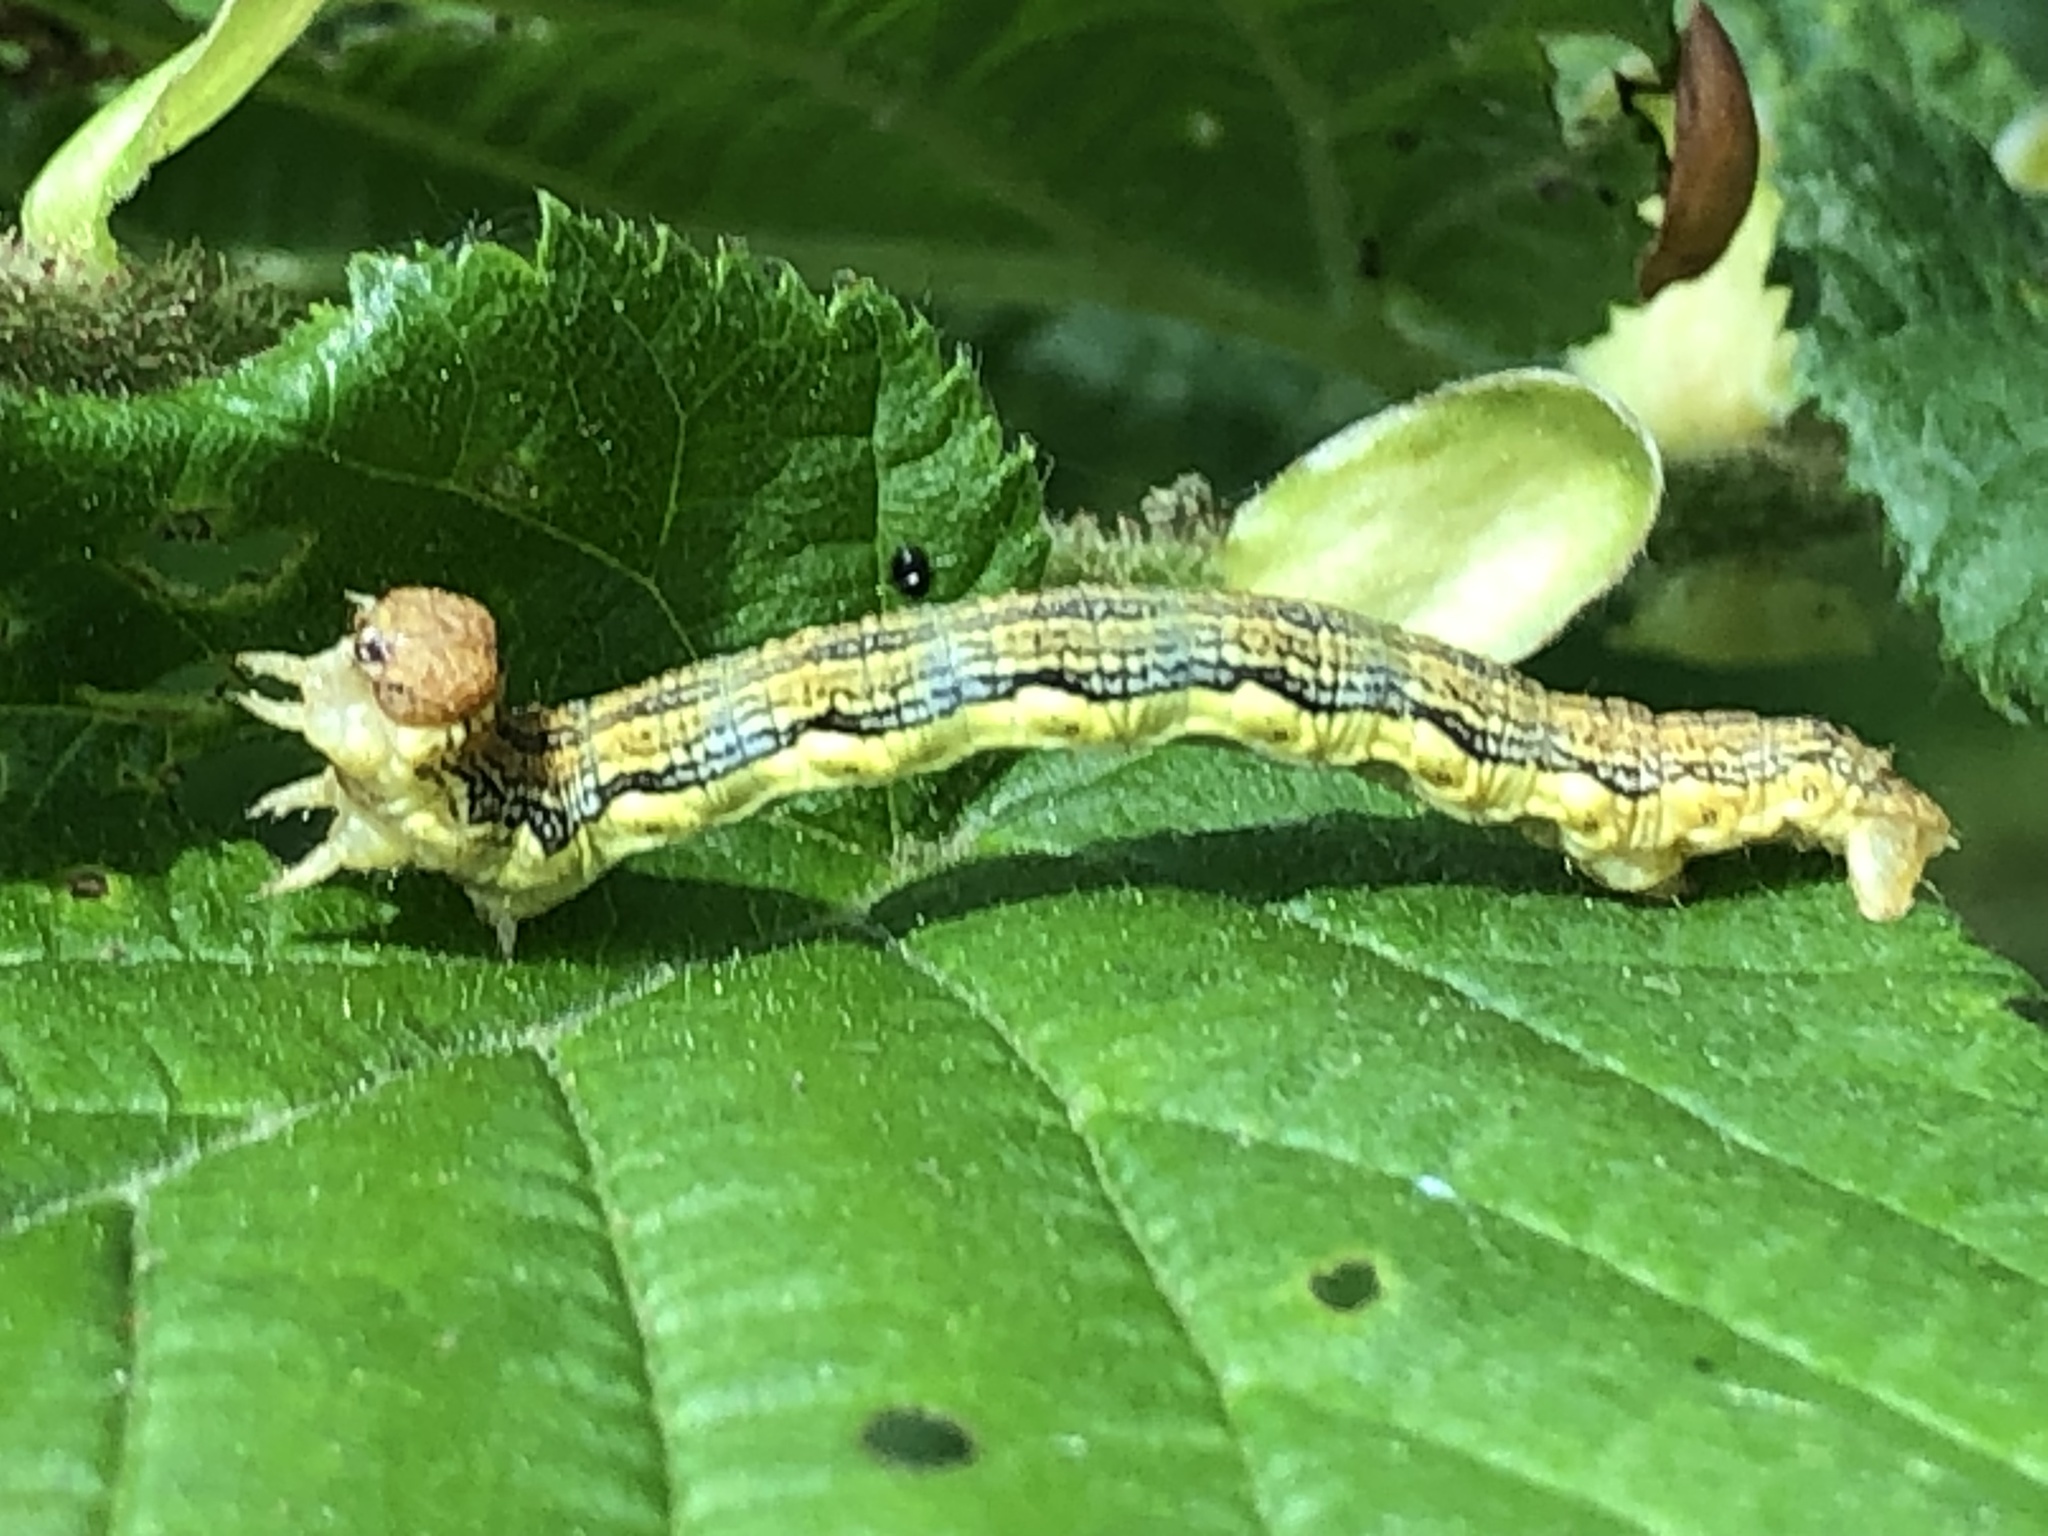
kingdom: Animalia
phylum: Arthropoda
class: Insecta
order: Lepidoptera
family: Geometridae
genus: Erannis
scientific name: Erannis defoliaria
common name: Mottled umber
